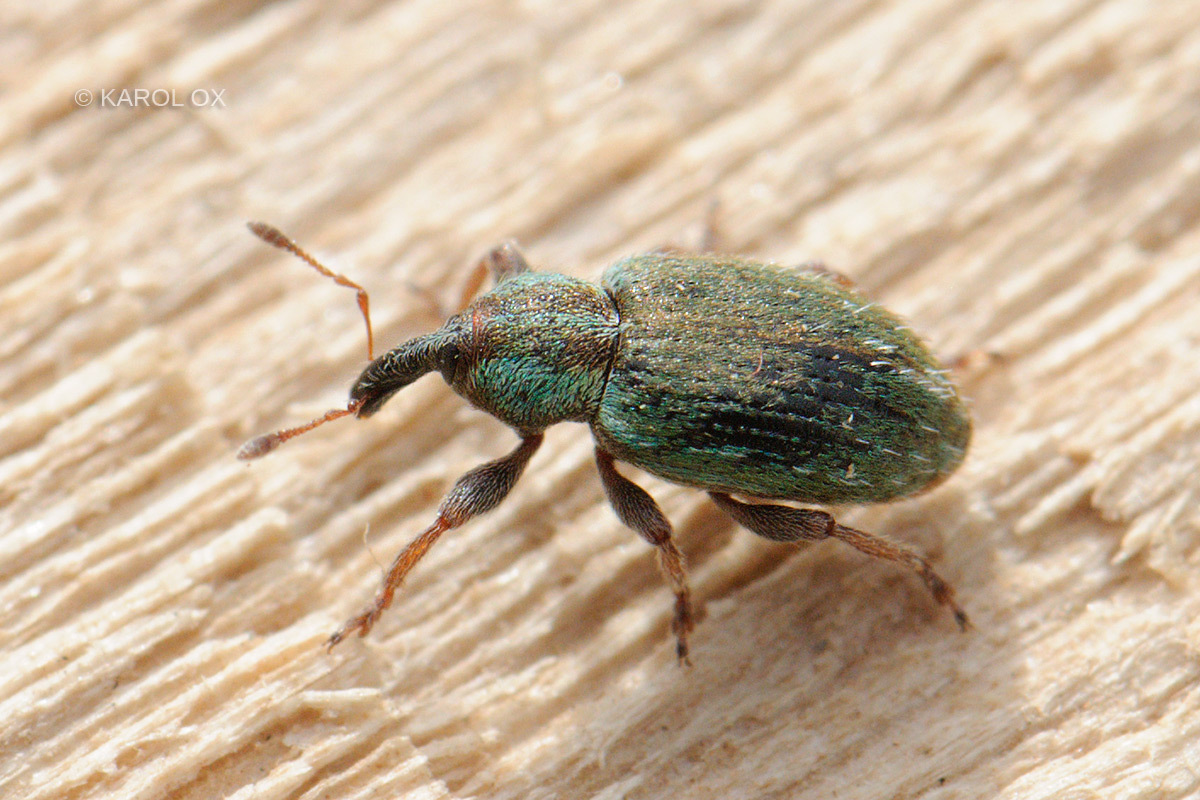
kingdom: Animalia
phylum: Arthropoda
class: Insecta
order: Coleoptera
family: Curculionidae
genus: Hypera
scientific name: Hypera nigrirostris
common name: Black-beaked green weevil
